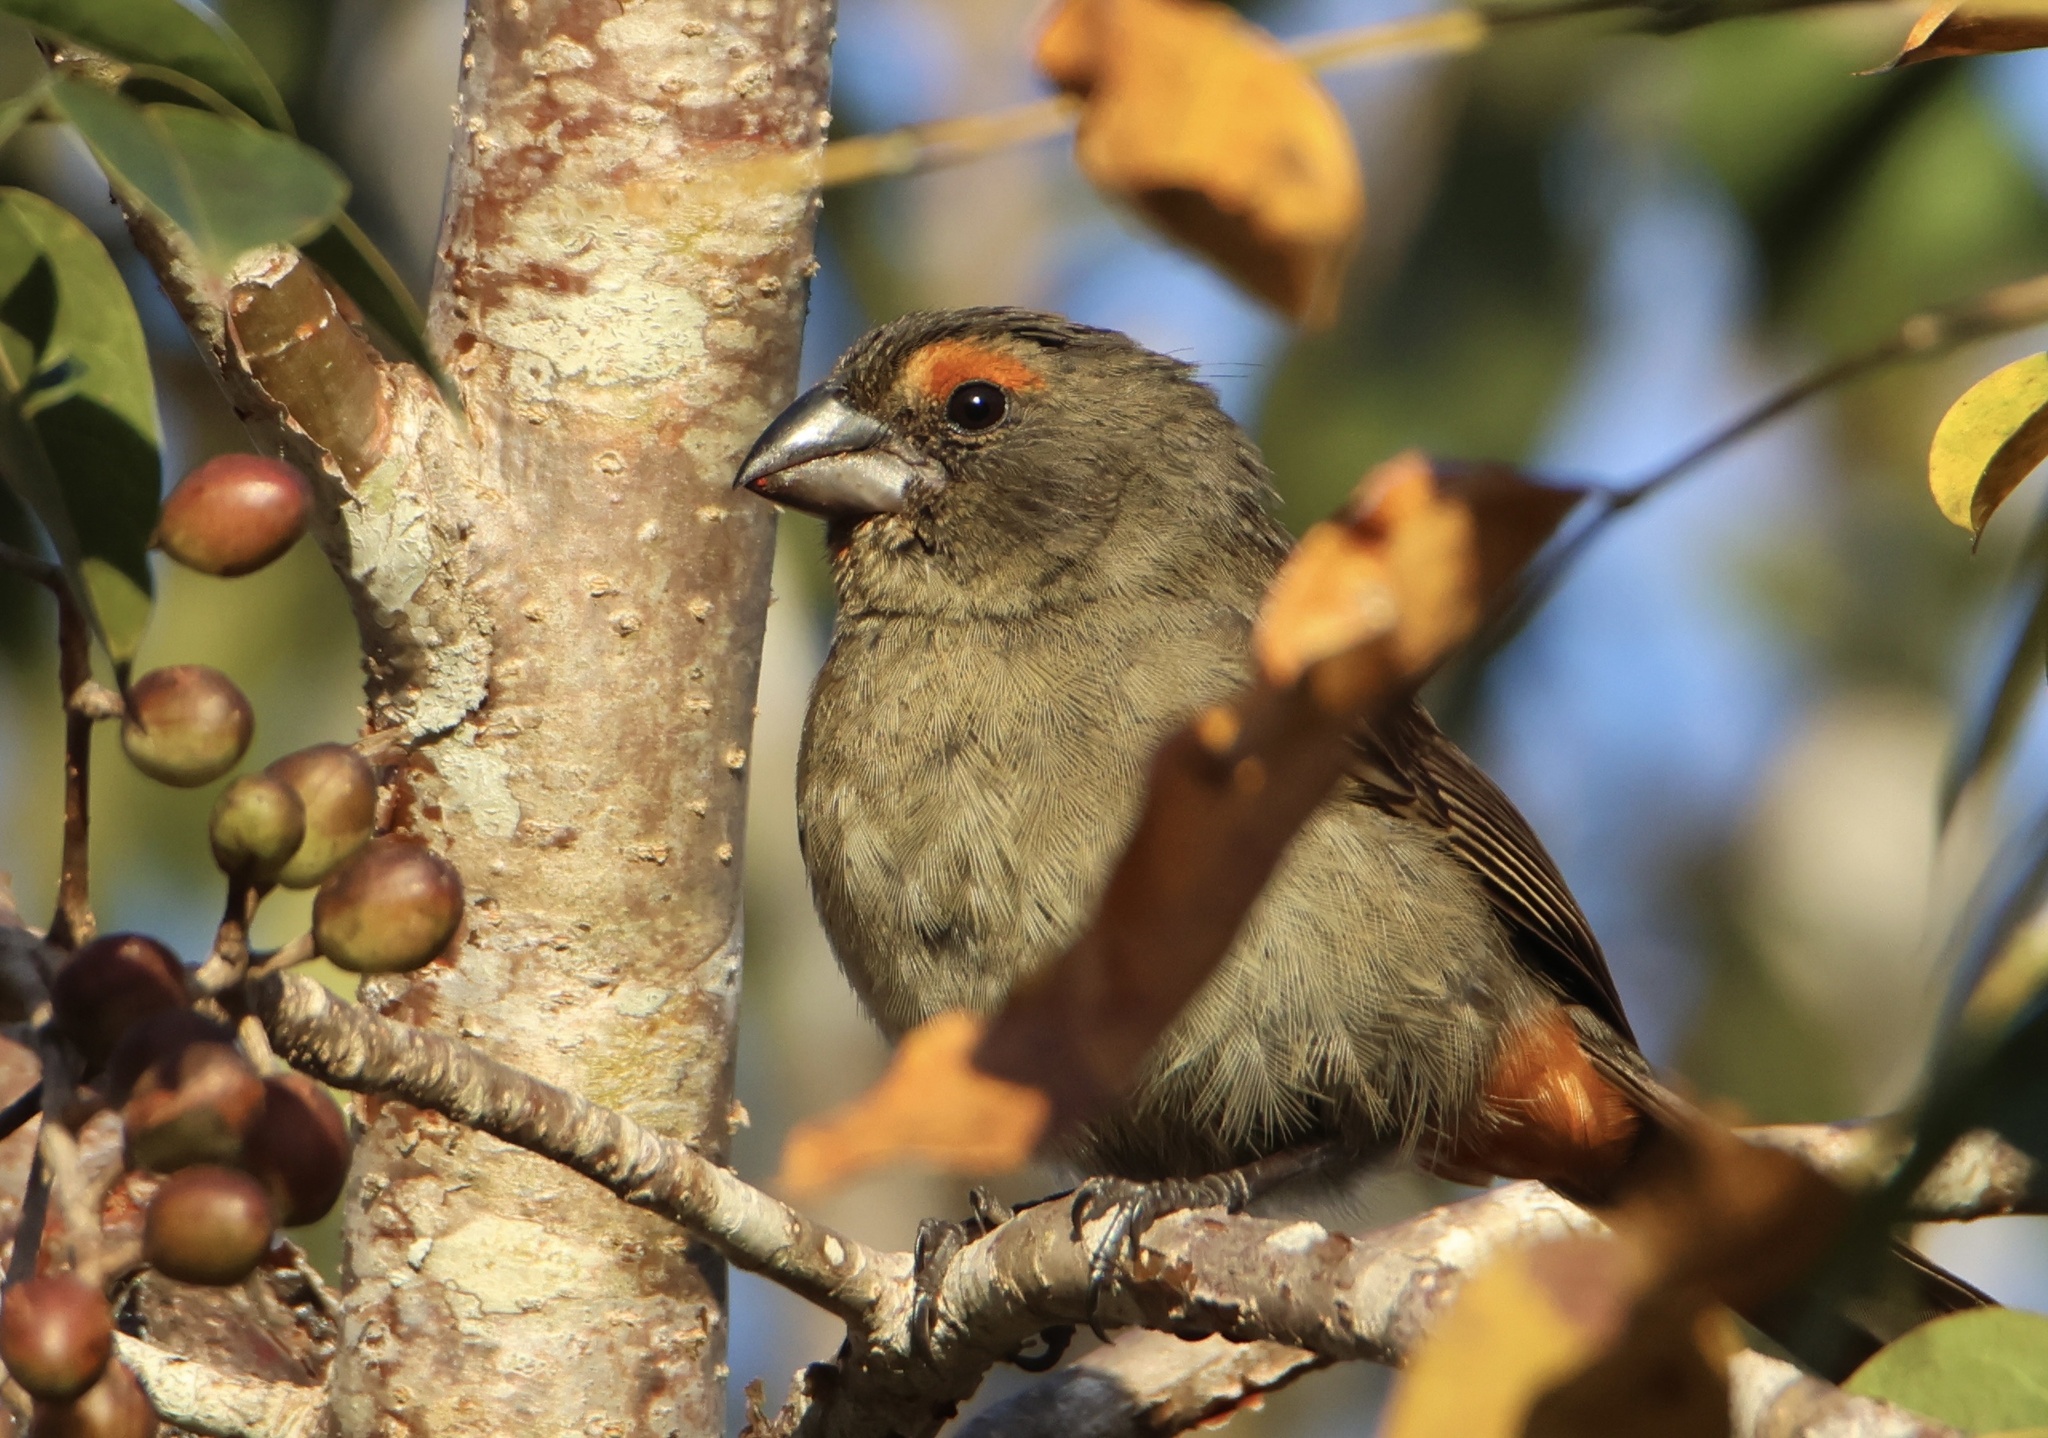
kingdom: Animalia
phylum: Chordata
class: Aves
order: Passeriformes
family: Thraupidae
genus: Melopyrrha
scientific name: Melopyrrha violacea
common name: Greater antillean bullfinch
